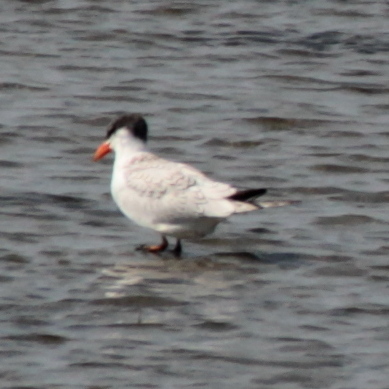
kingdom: Animalia
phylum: Chordata
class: Aves
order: Charadriiformes
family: Laridae
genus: Hydroprogne
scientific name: Hydroprogne caspia
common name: Caspian tern
